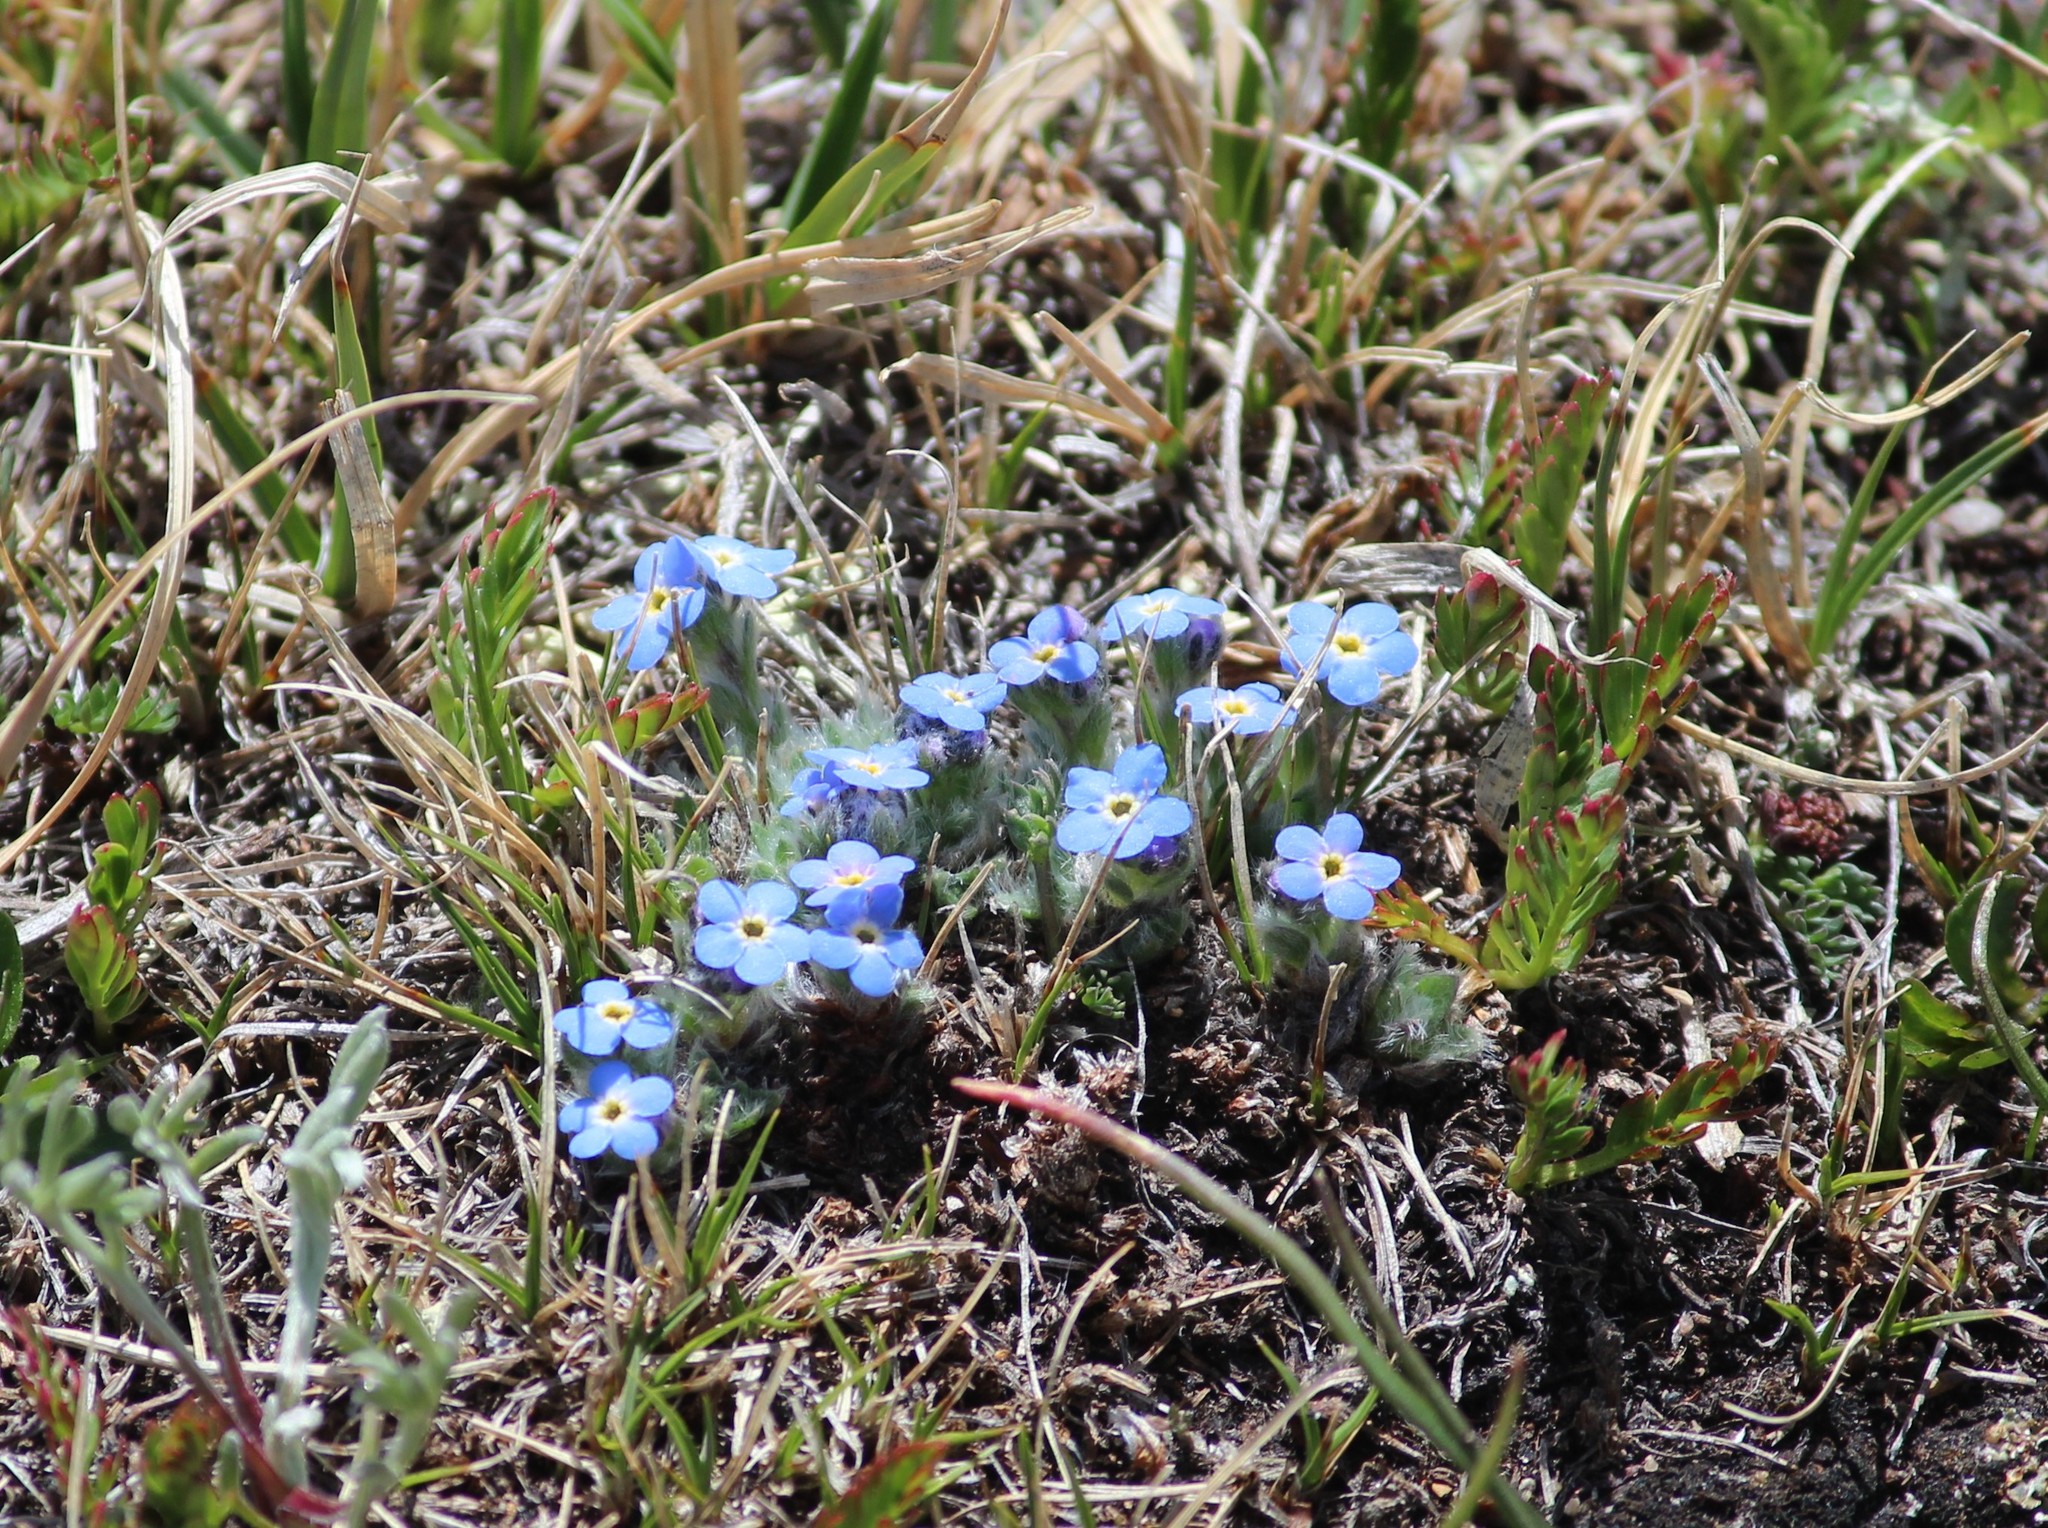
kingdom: Plantae
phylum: Tracheophyta
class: Magnoliopsida
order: Boraginales
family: Boraginaceae
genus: Eritrichium
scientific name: Eritrichium argenteum
